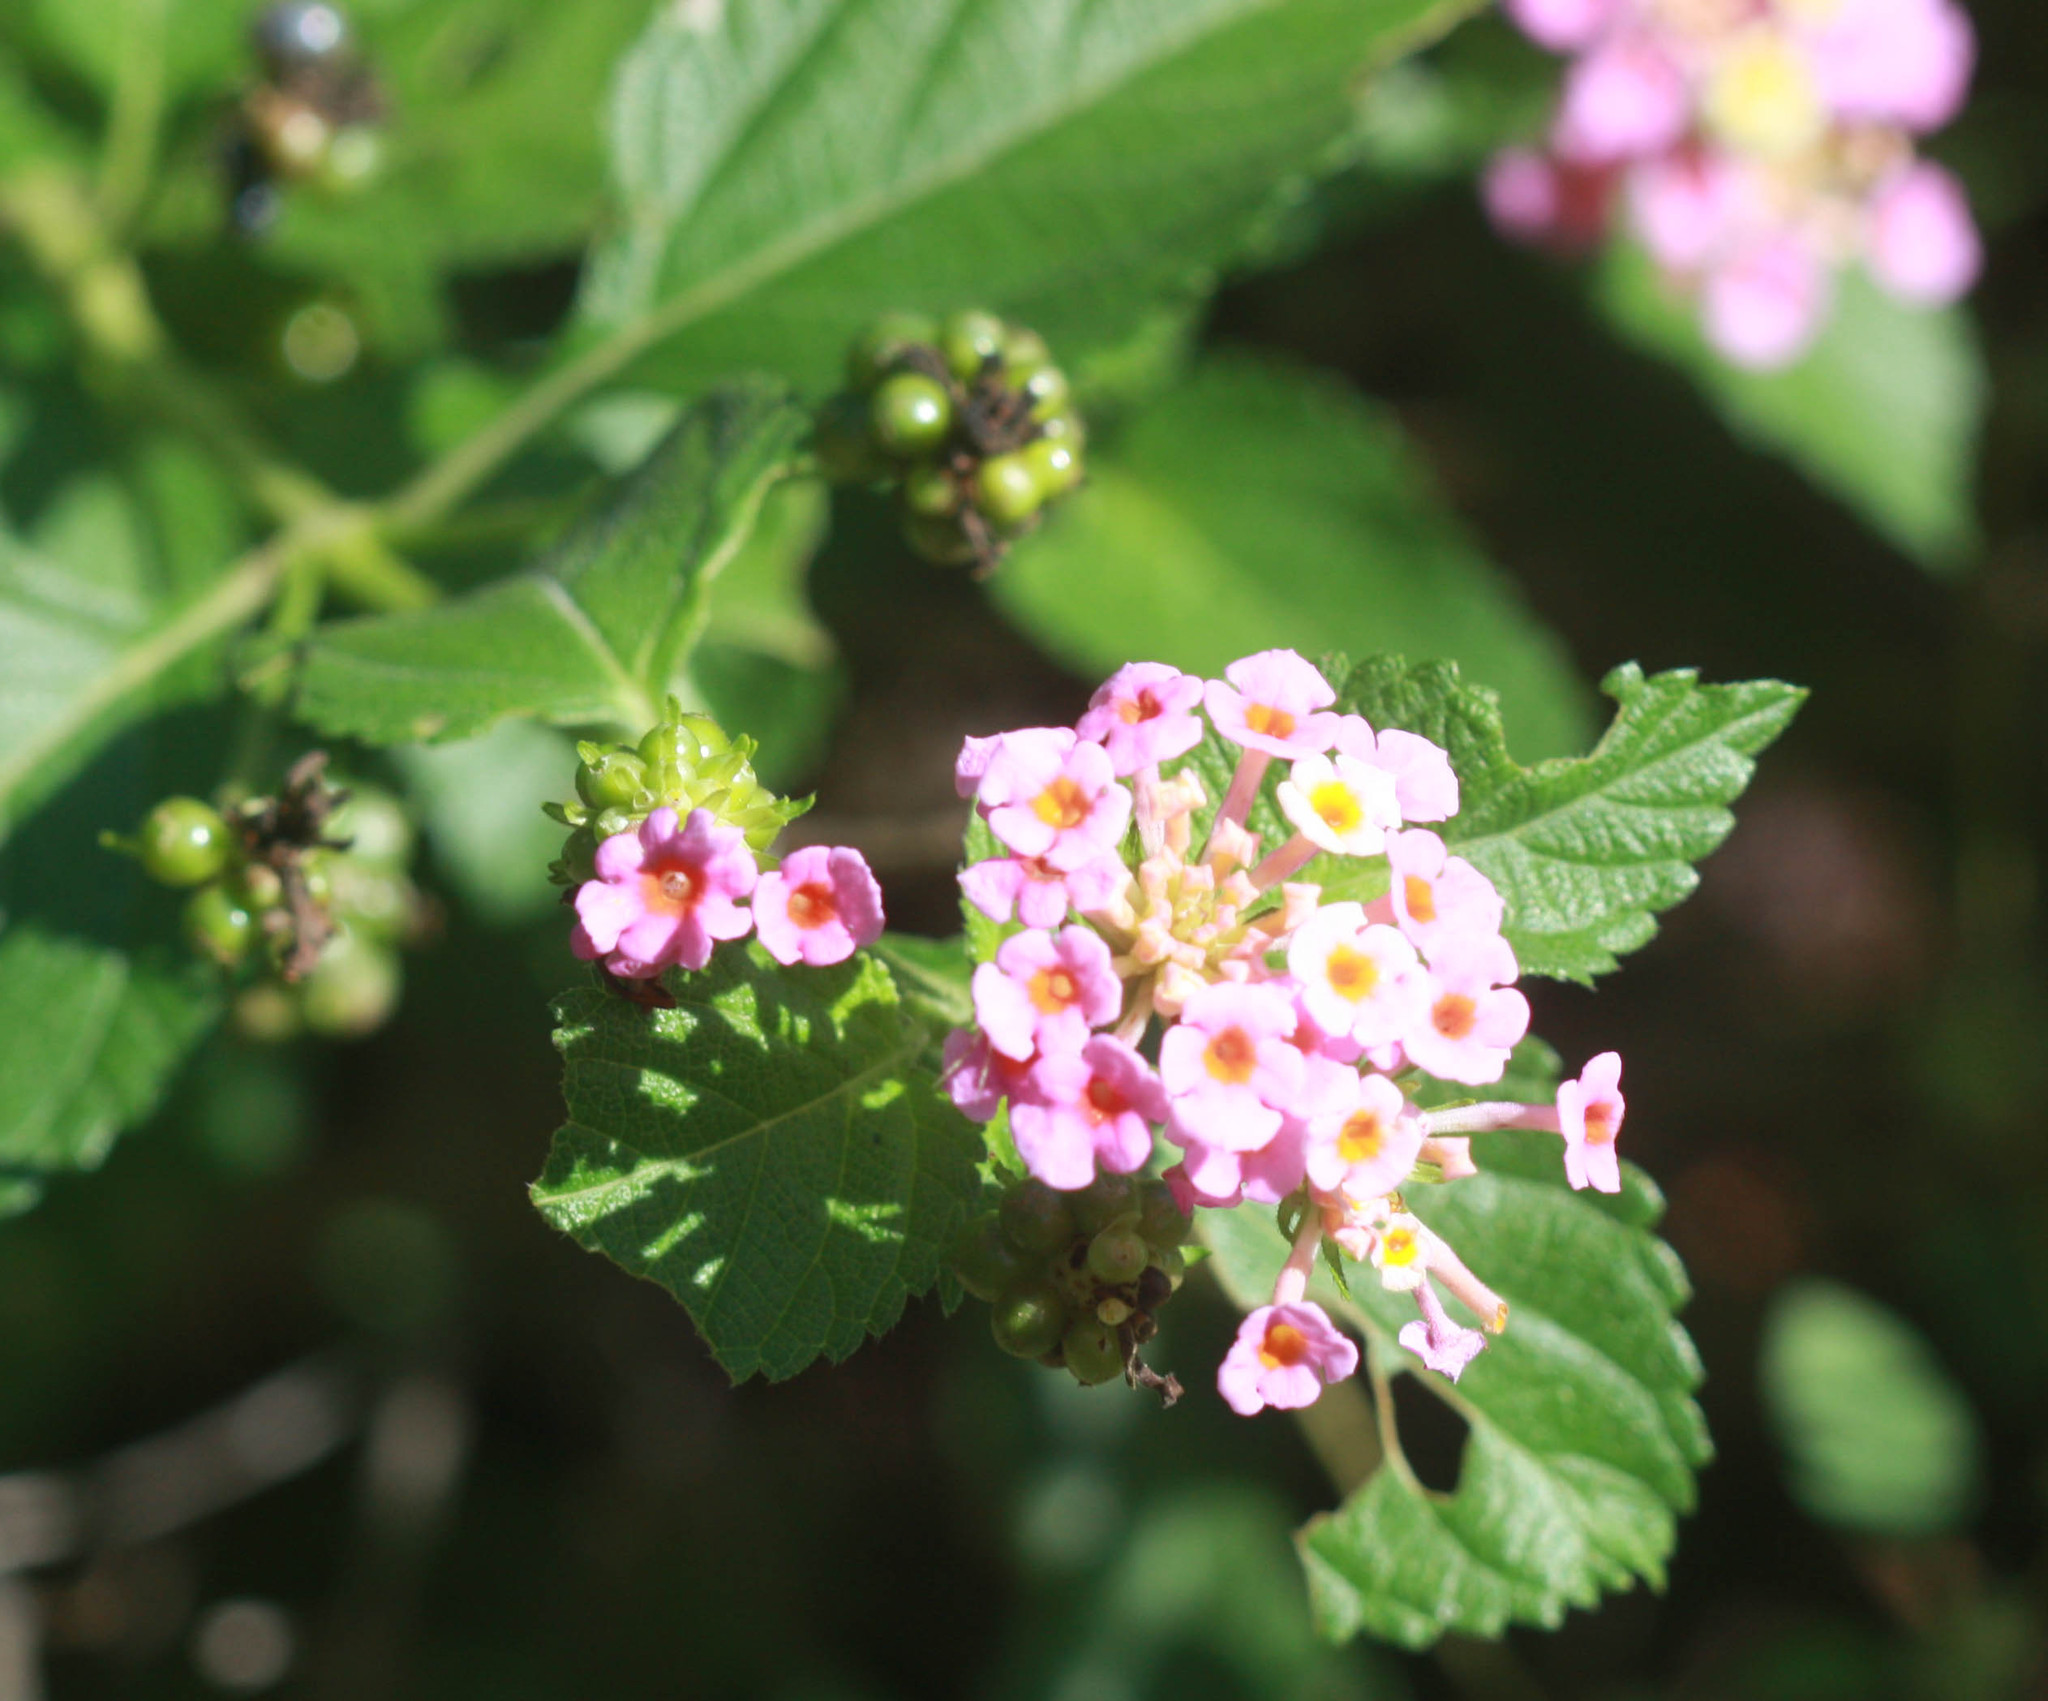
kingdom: Plantae
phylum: Tracheophyta
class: Magnoliopsida
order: Lamiales
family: Verbenaceae
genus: Lantana
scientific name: Lantana strigocamara
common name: Lantana
